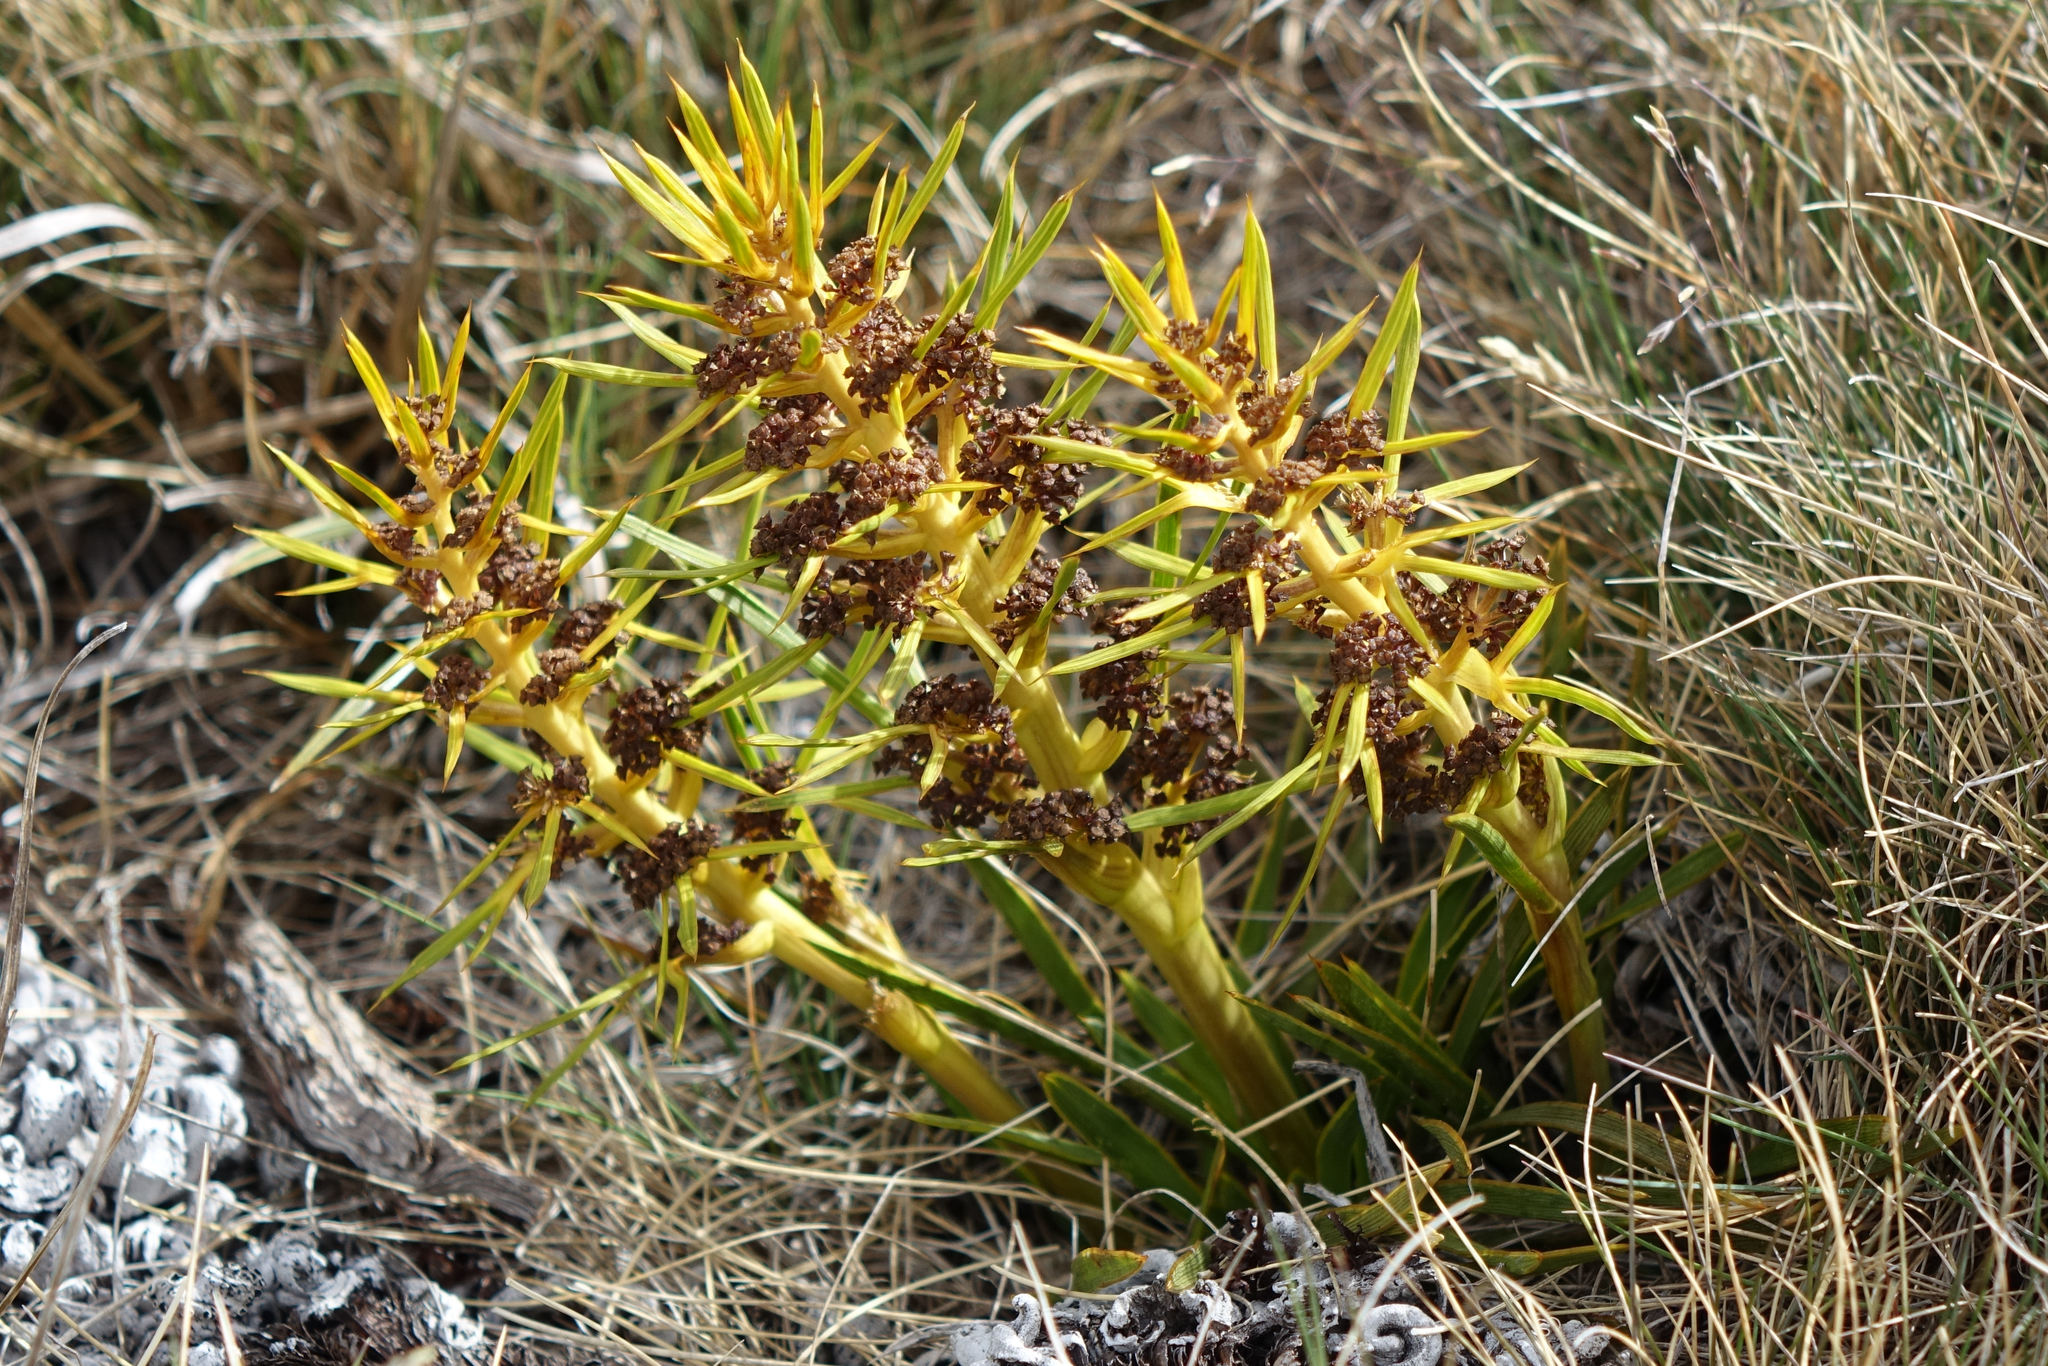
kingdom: Plantae
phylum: Tracheophyta
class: Magnoliopsida
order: Apiales
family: Apiaceae
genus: Aciphylla
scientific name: Aciphylla verticillata
